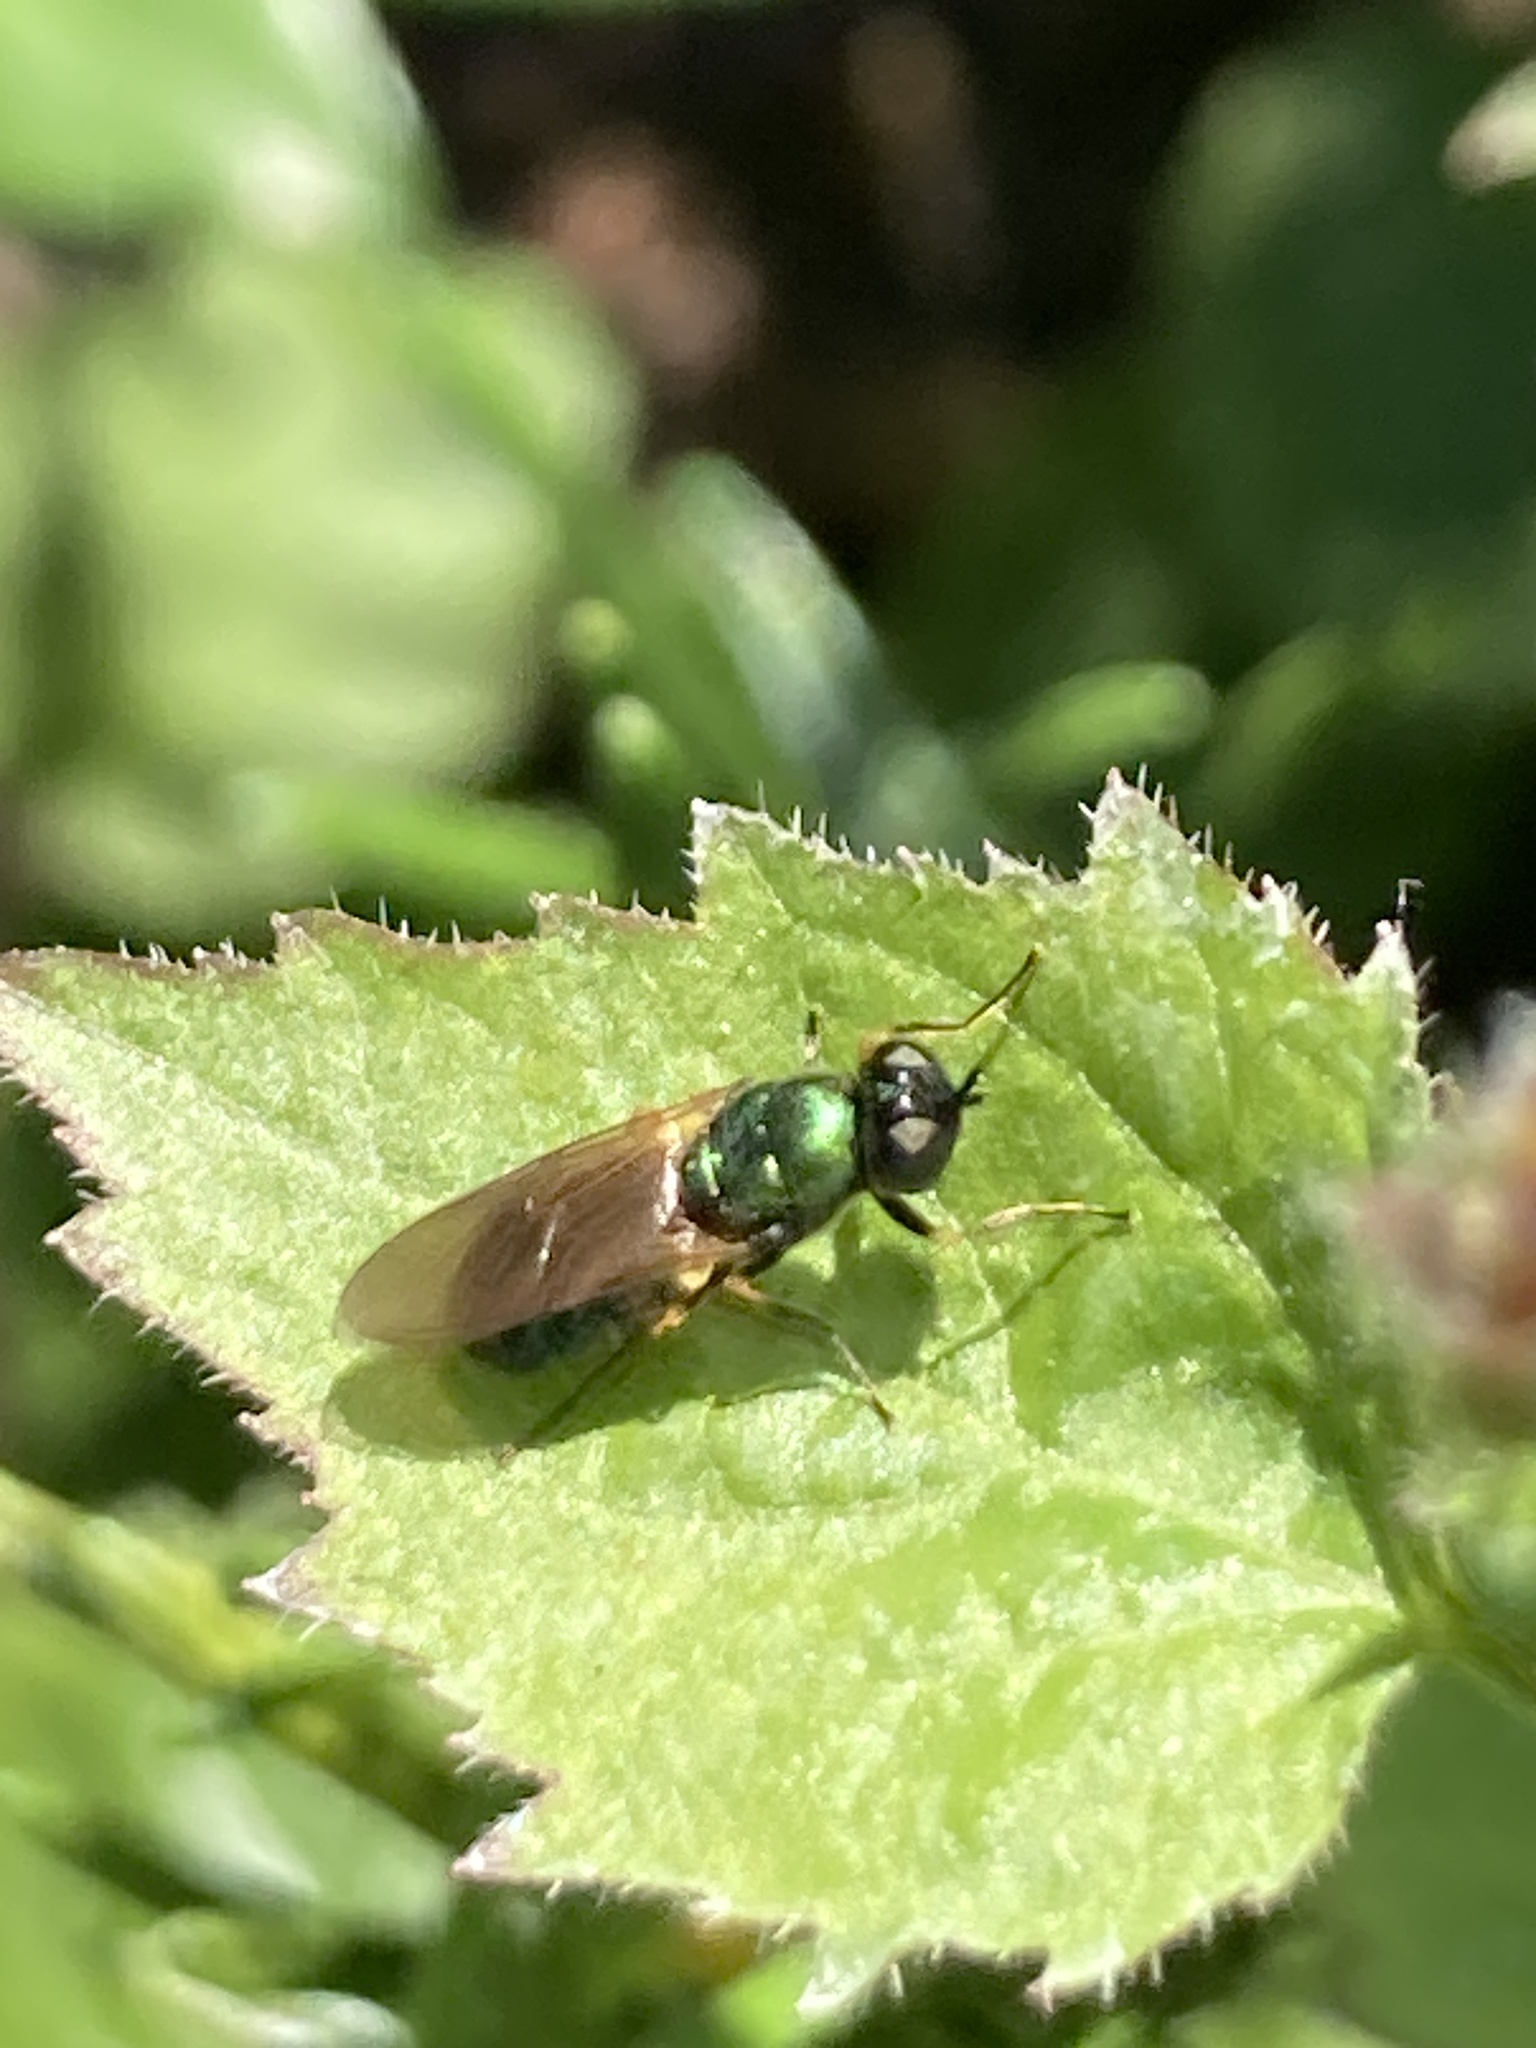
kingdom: Animalia
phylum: Arthropoda
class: Insecta
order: Diptera
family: Stratiomyidae
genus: Chloromyia
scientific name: Chloromyia formosa
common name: Soldier fly
